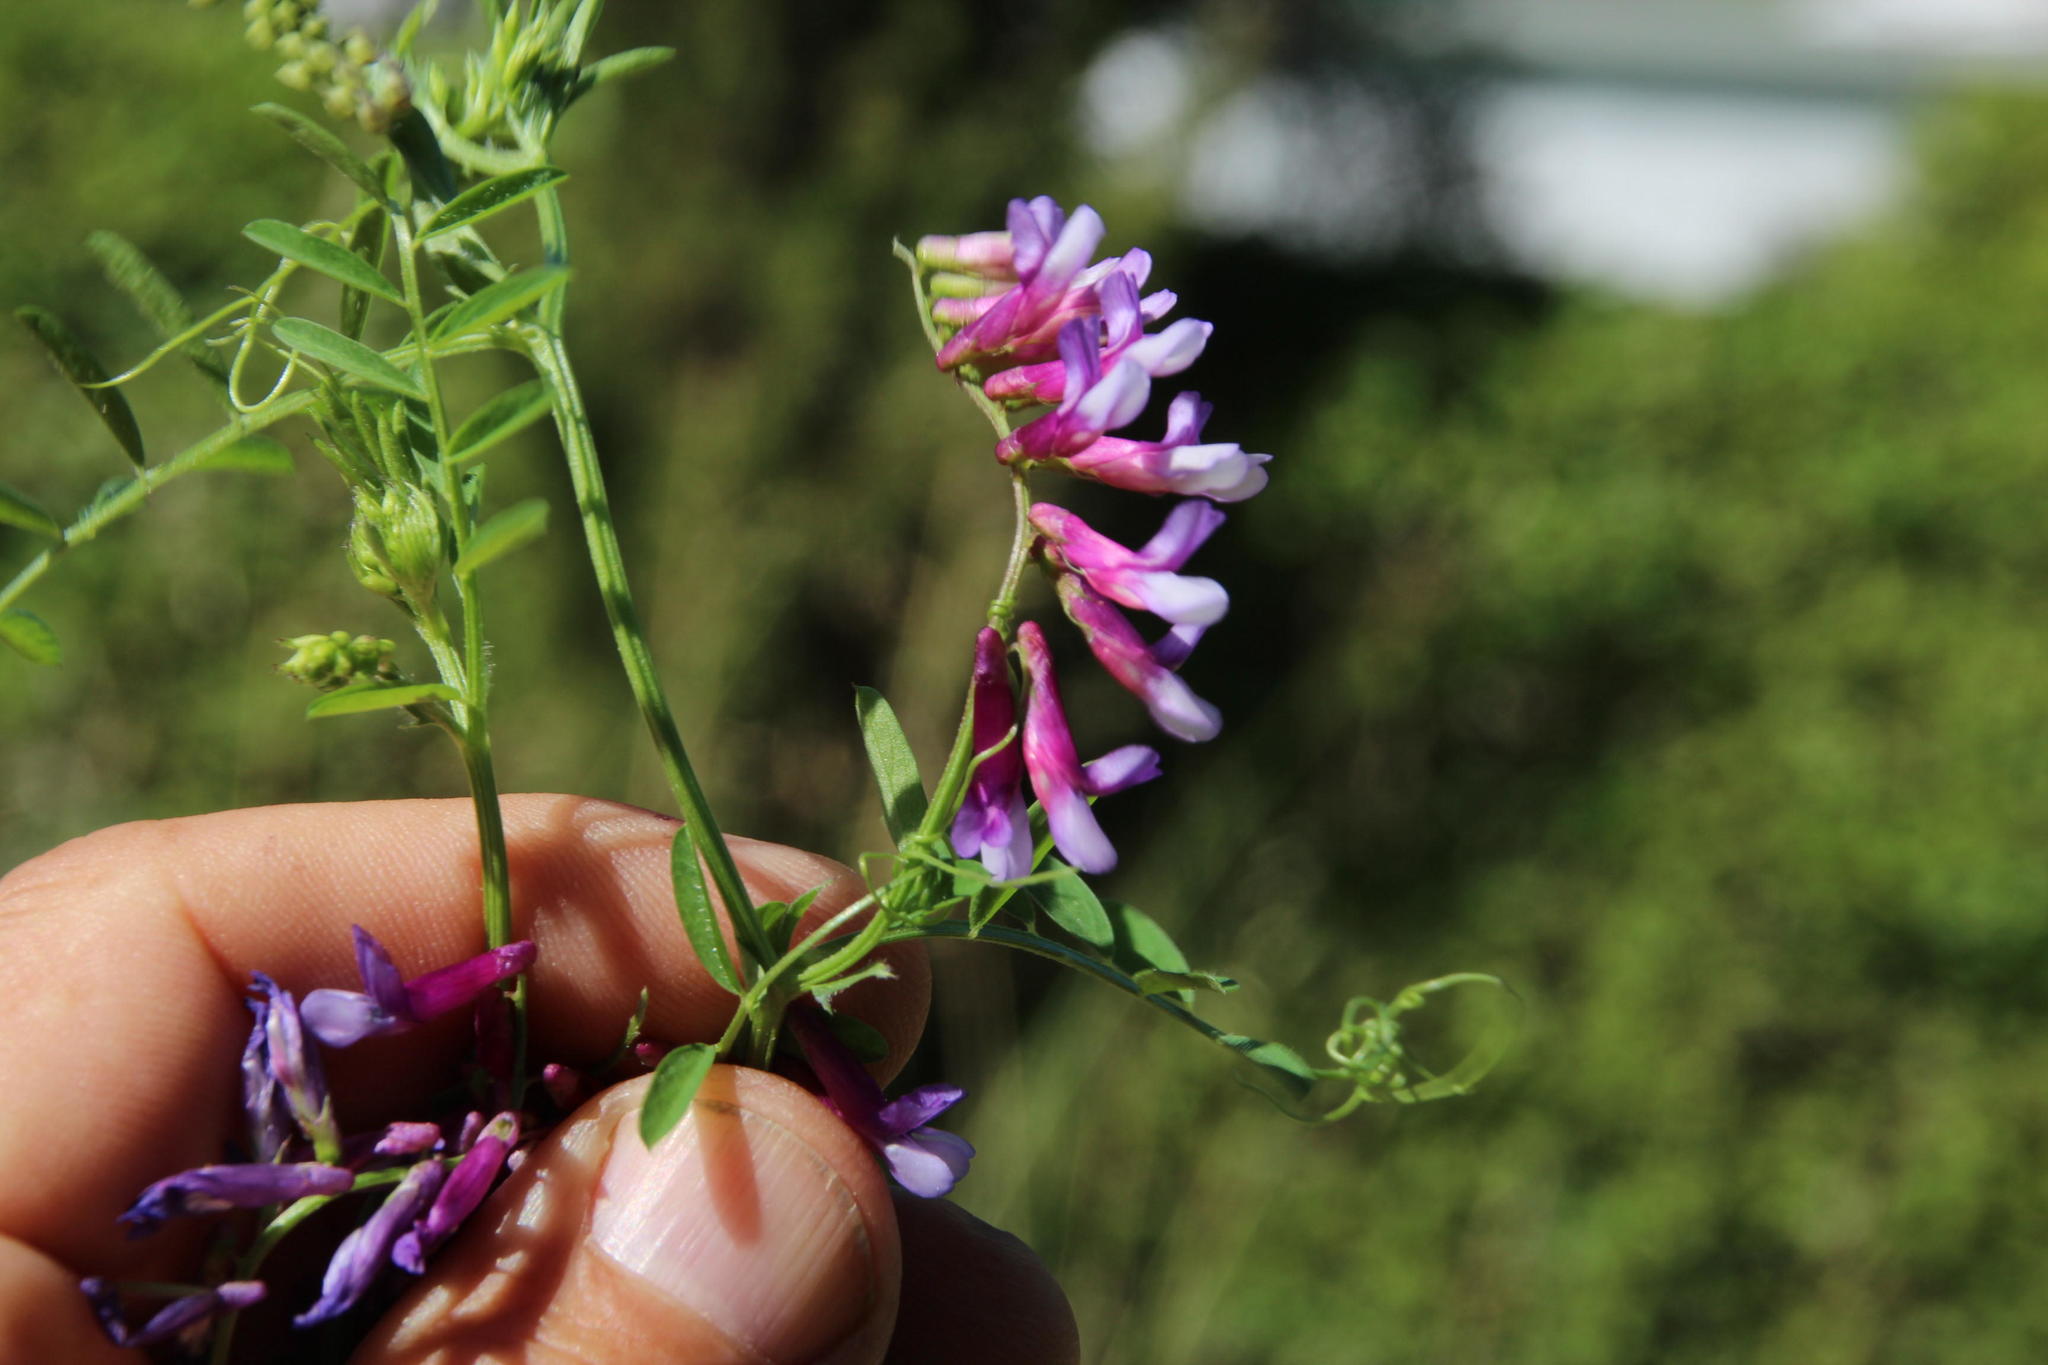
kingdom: Plantae
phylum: Tracheophyta
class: Magnoliopsida
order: Fabales
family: Fabaceae
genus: Vicia
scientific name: Vicia eriocarpa
